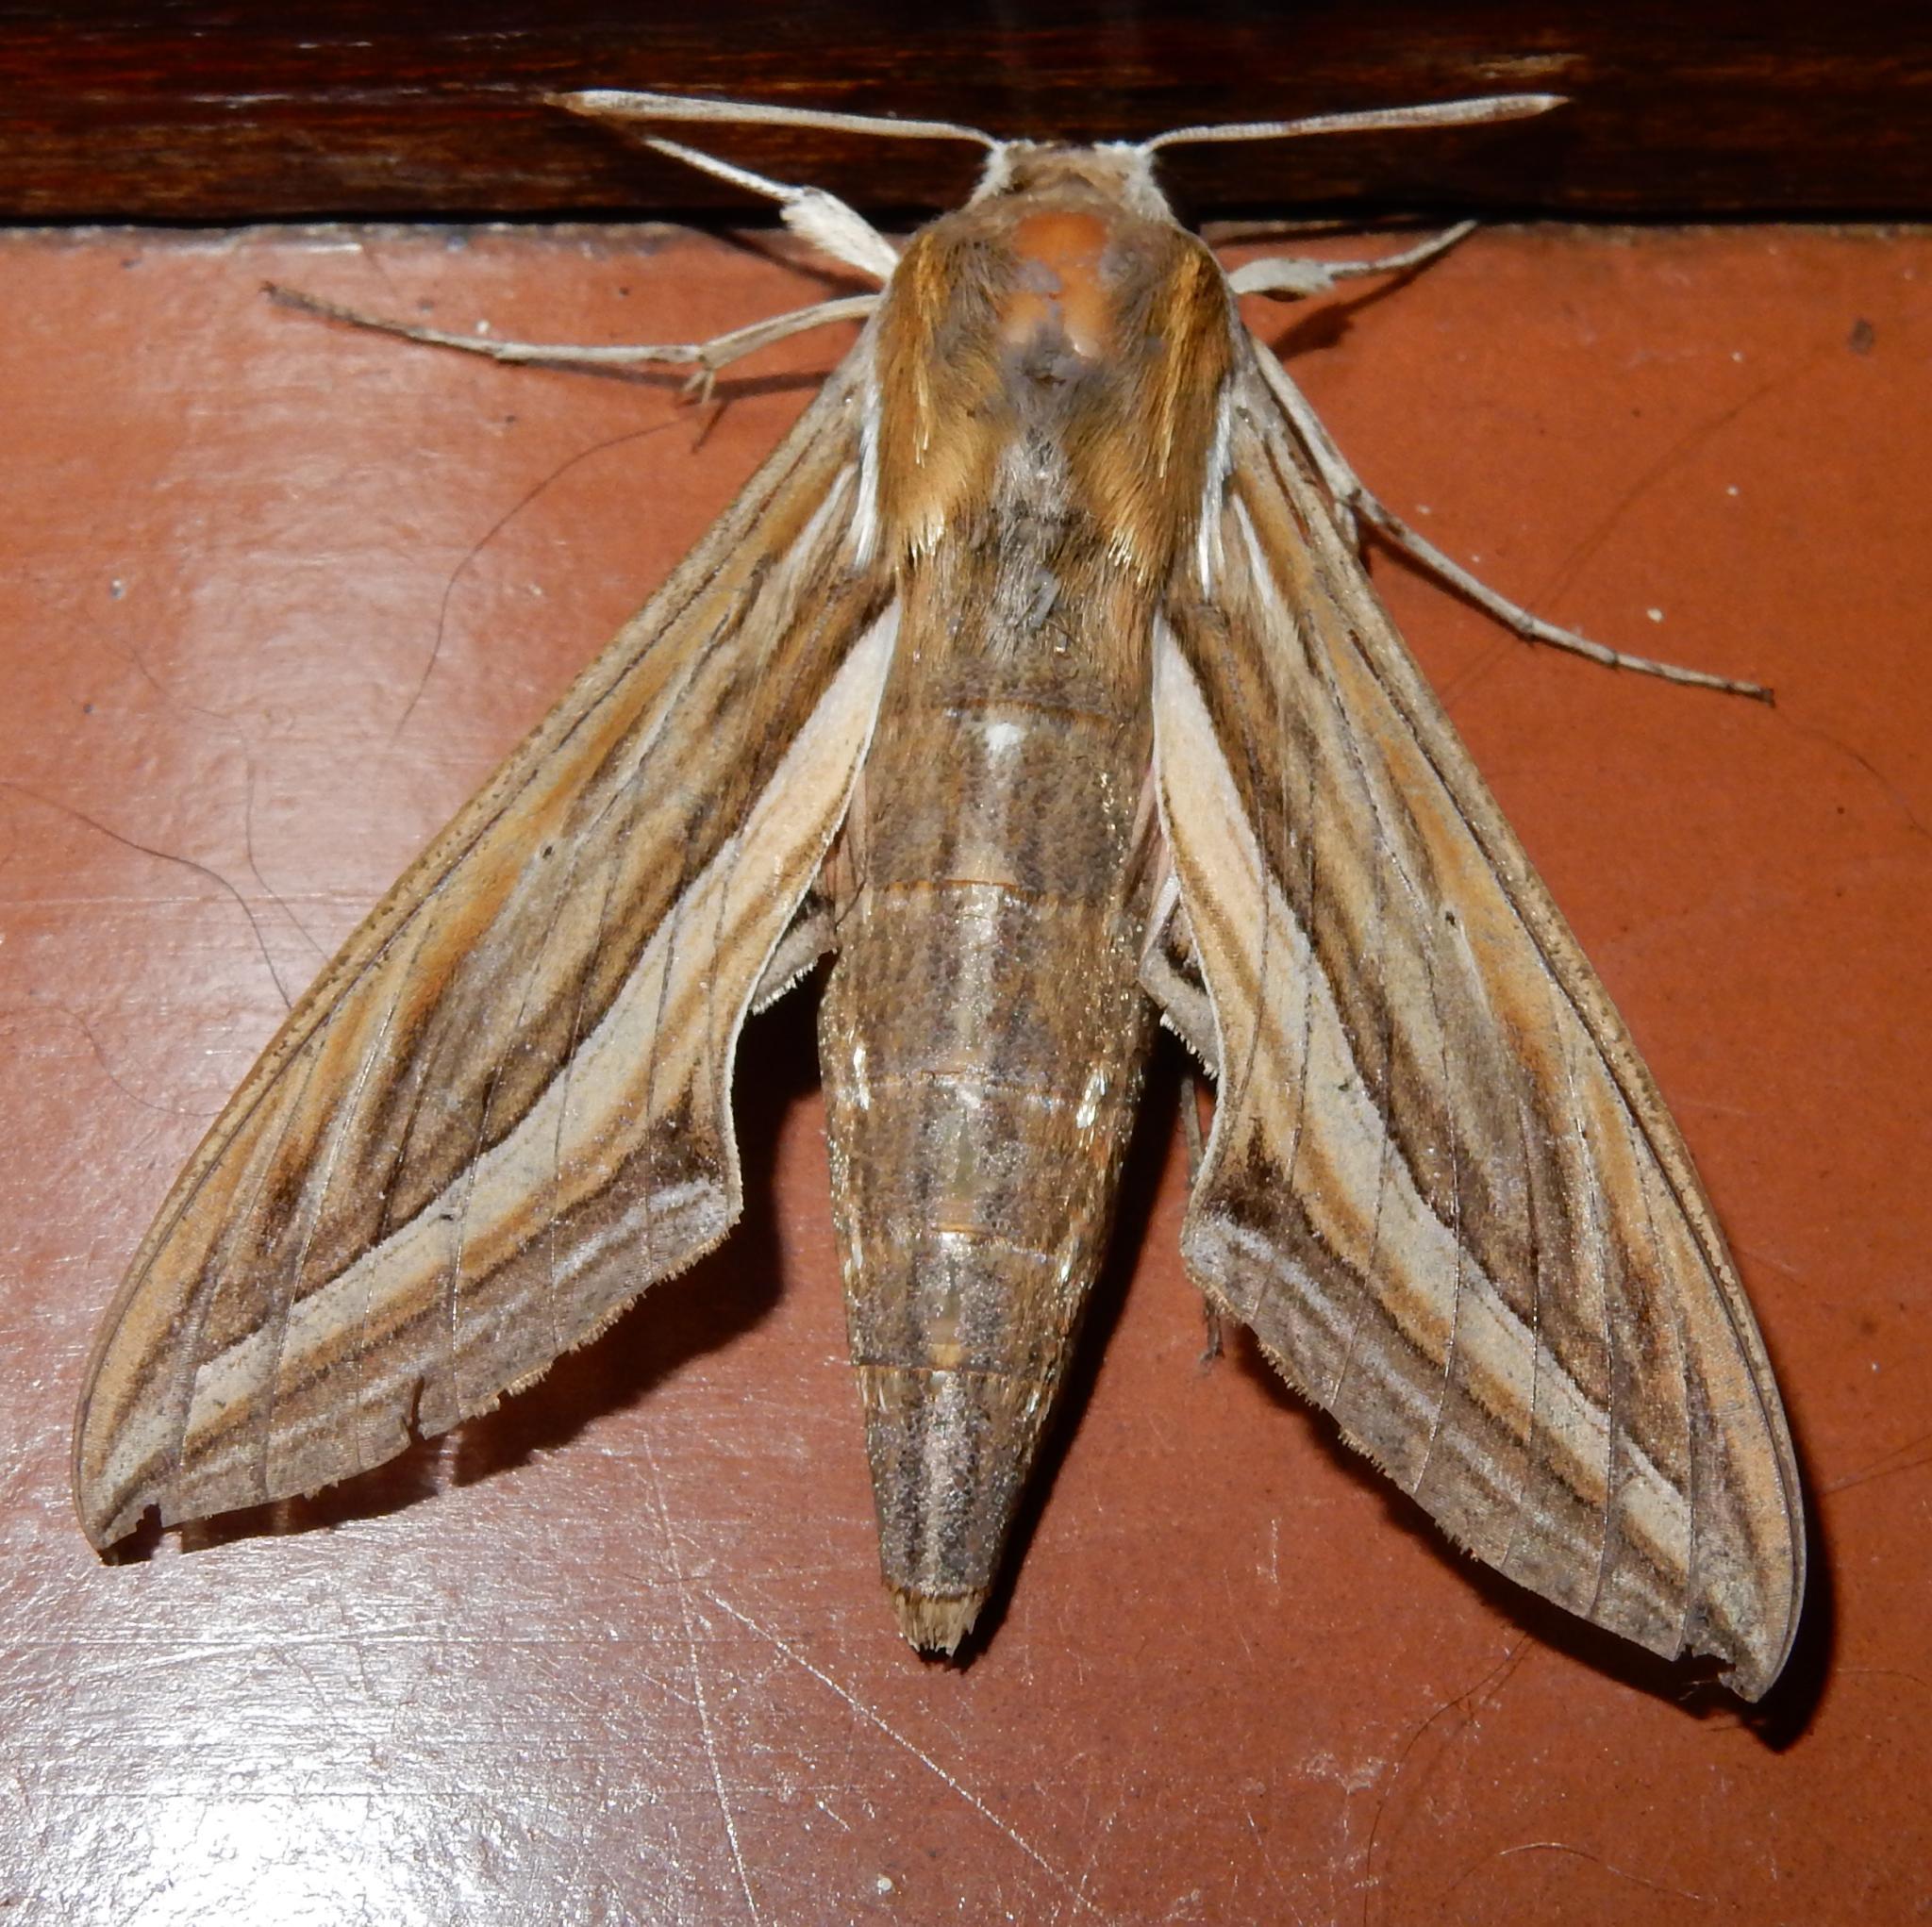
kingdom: Animalia
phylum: Arthropoda
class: Insecta
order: Lepidoptera
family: Sphingidae
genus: Hippotion
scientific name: Hippotion celerio
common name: Silver-striped hawk-moth
